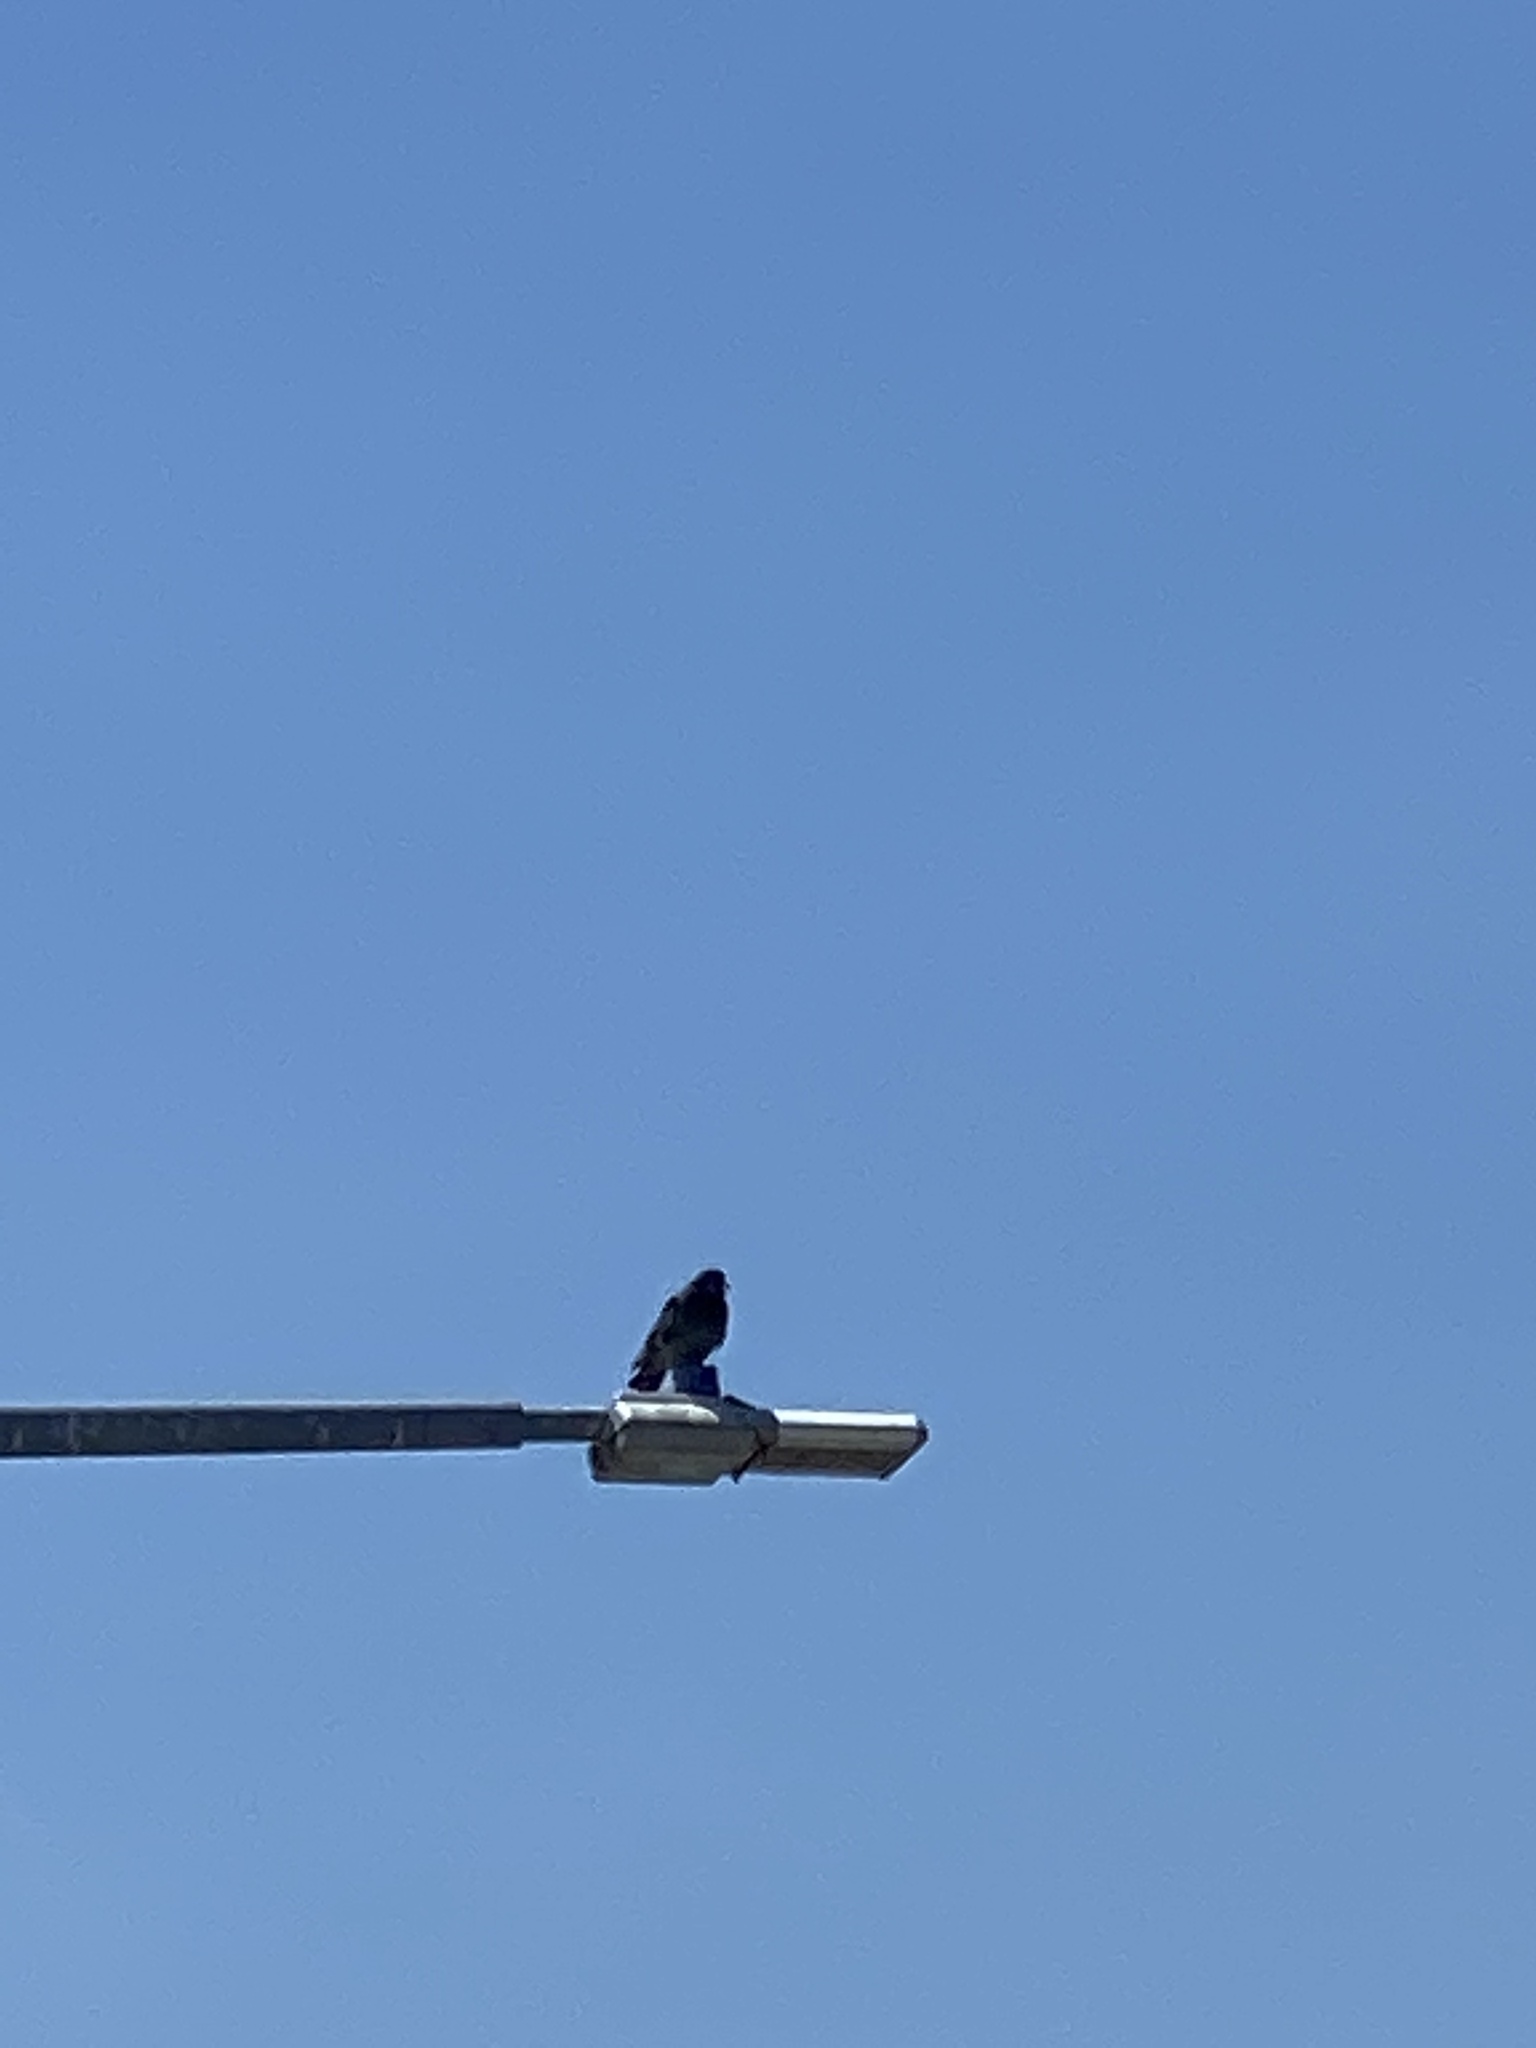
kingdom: Animalia
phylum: Chordata
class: Aves
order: Columbiformes
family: Columbidae
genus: Columba
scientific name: Columba livia
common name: Rock pigeon
